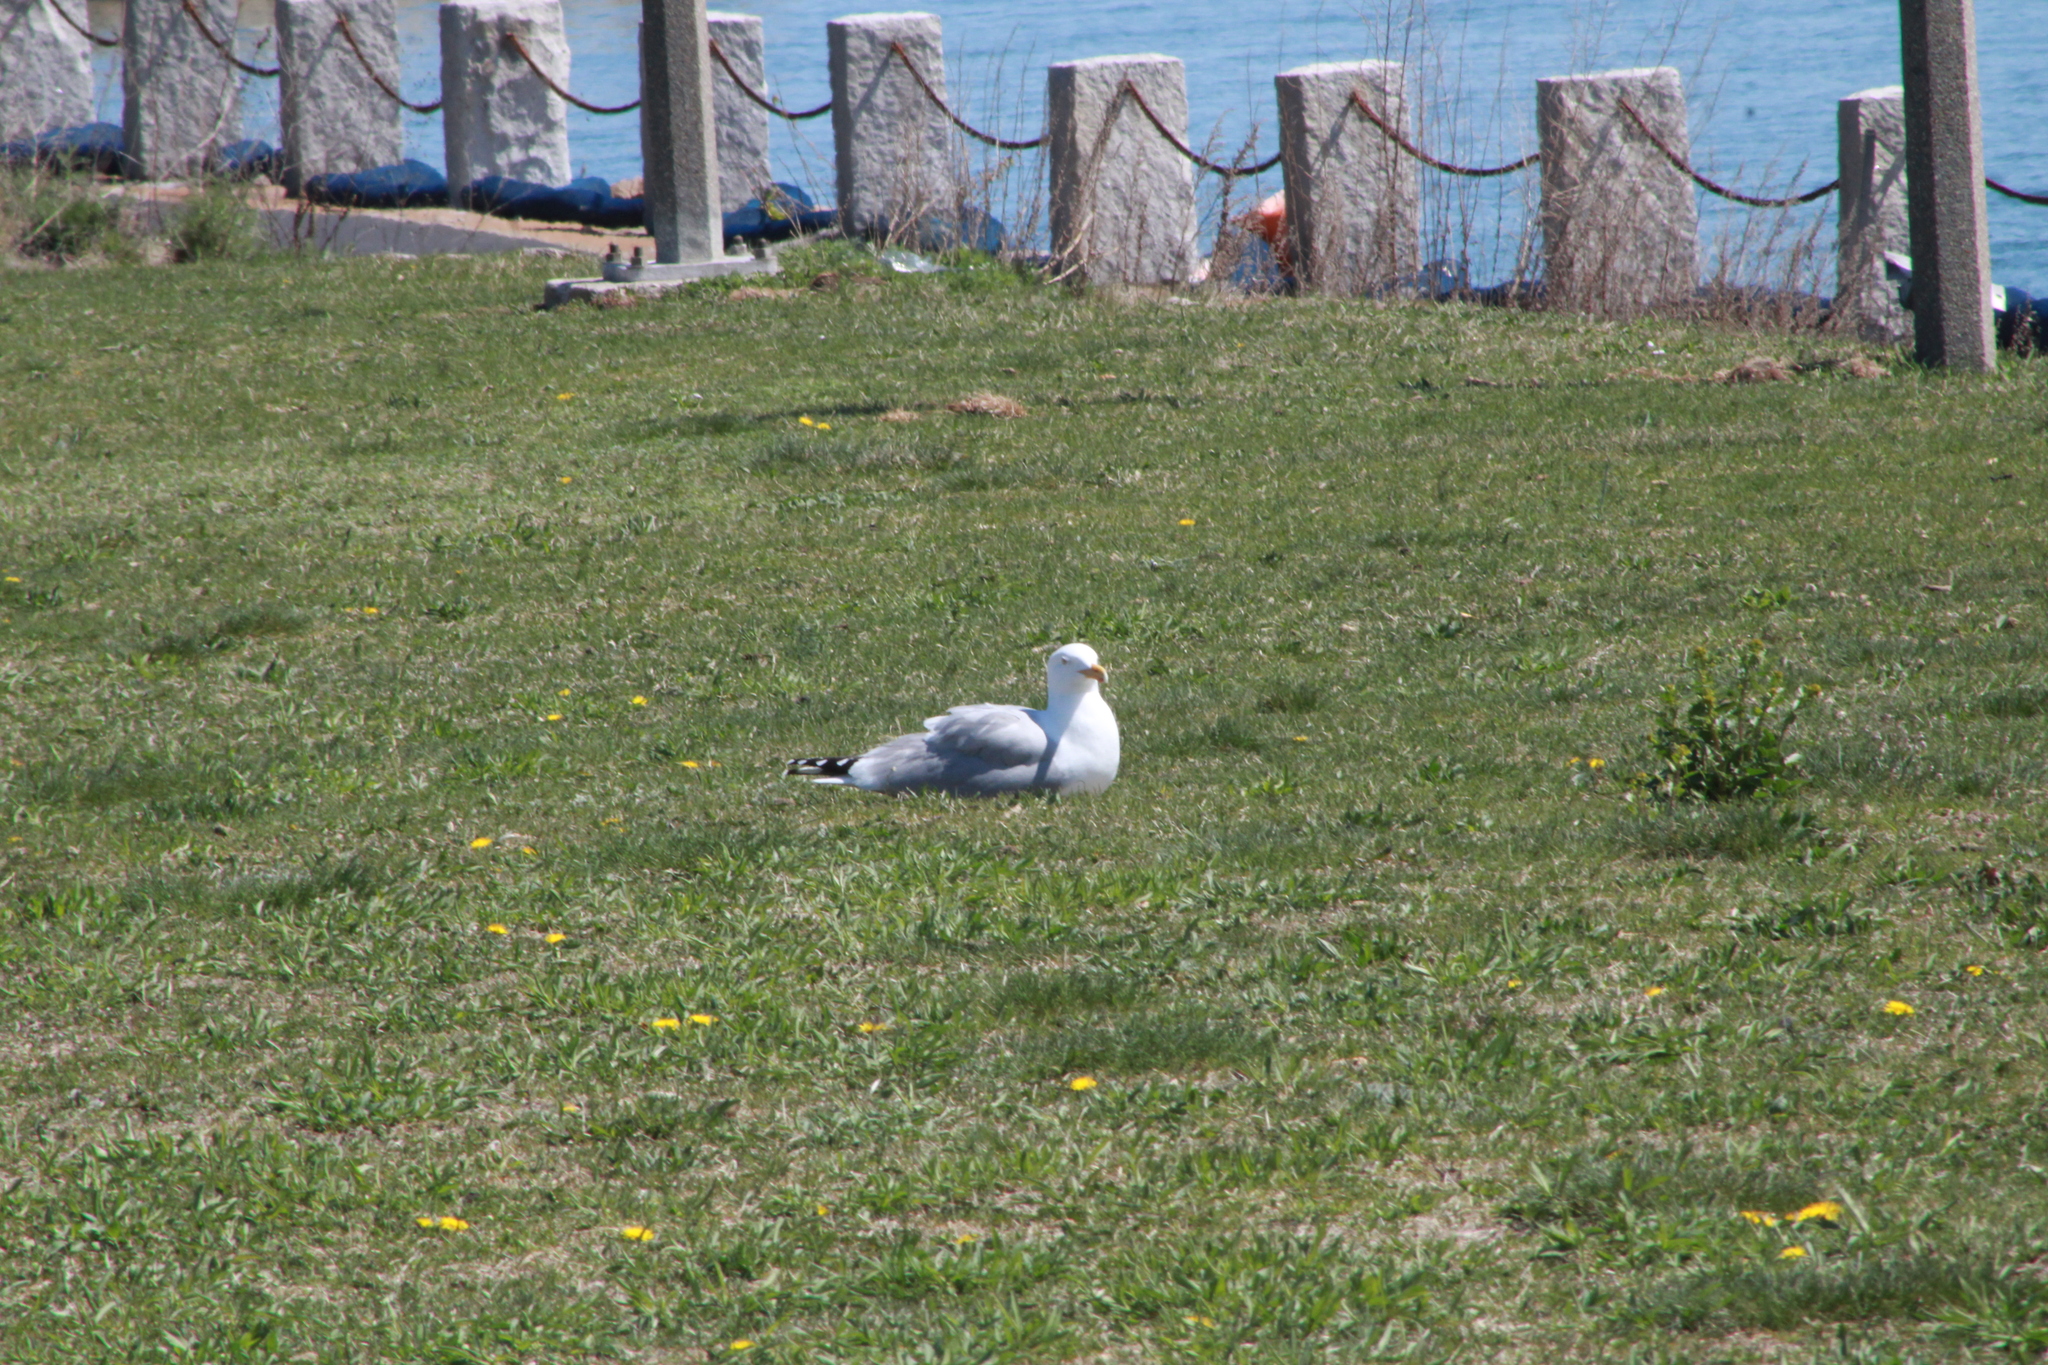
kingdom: Animalia
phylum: Chordata
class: Aves
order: Charadriiformes
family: Laridae
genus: Larus
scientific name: Larus argentatus
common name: Herring gull
